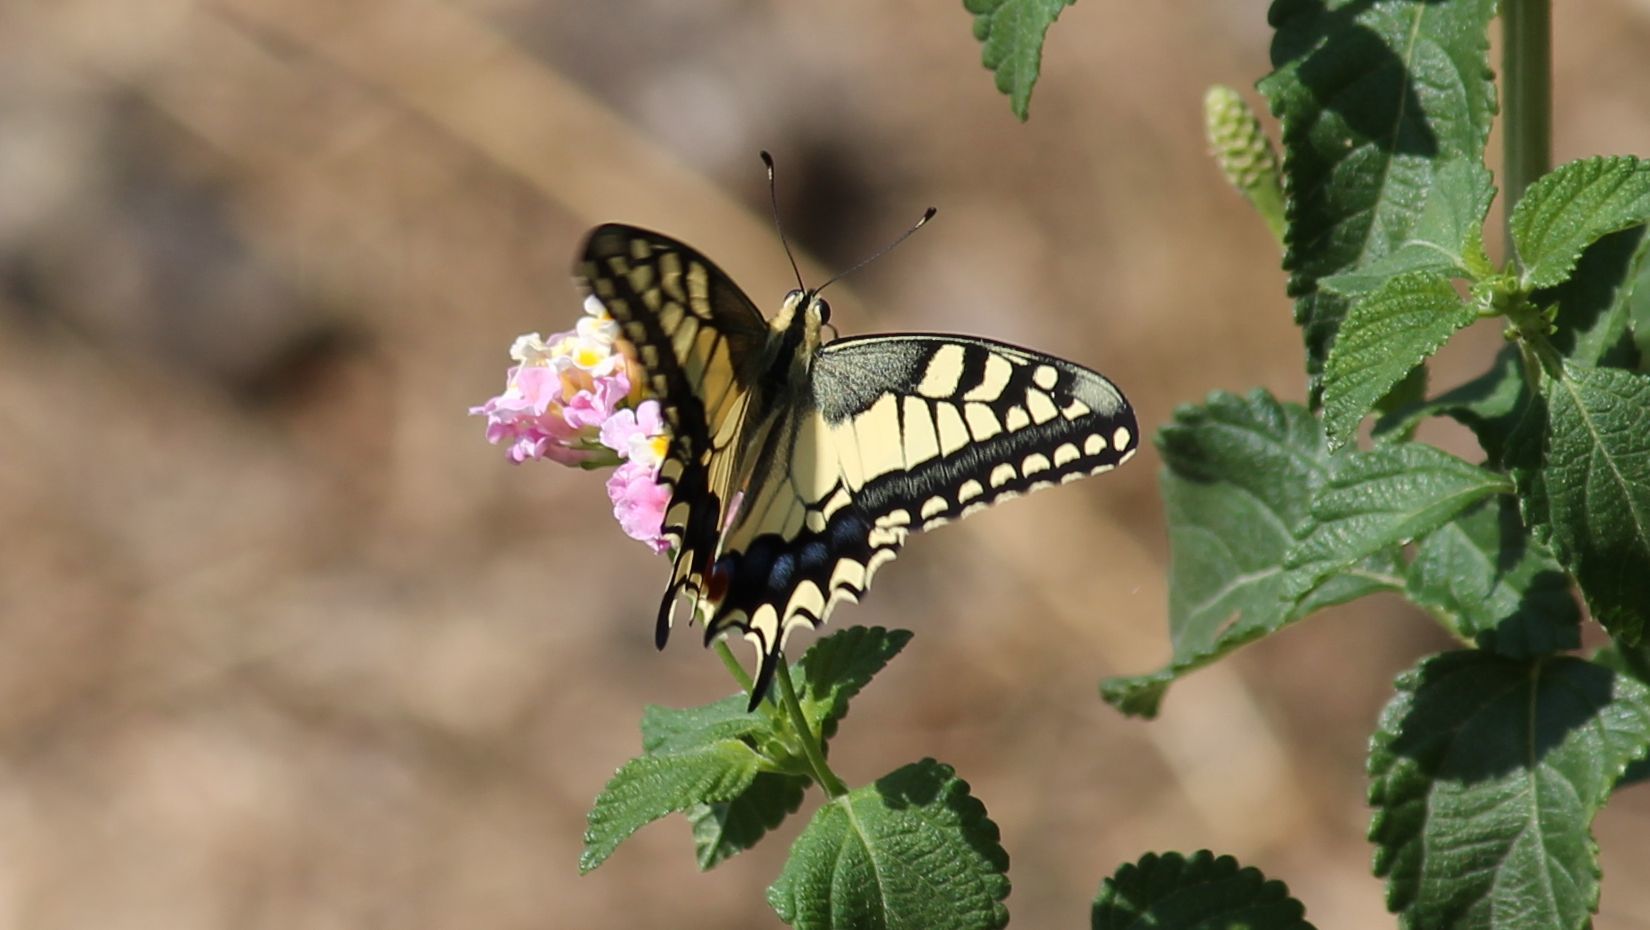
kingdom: Animalia
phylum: Arthropoda
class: Insecta
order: Lepidoptera
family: Papilionidae
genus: Papilio
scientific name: Papilio machaon
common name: Swallowtail
